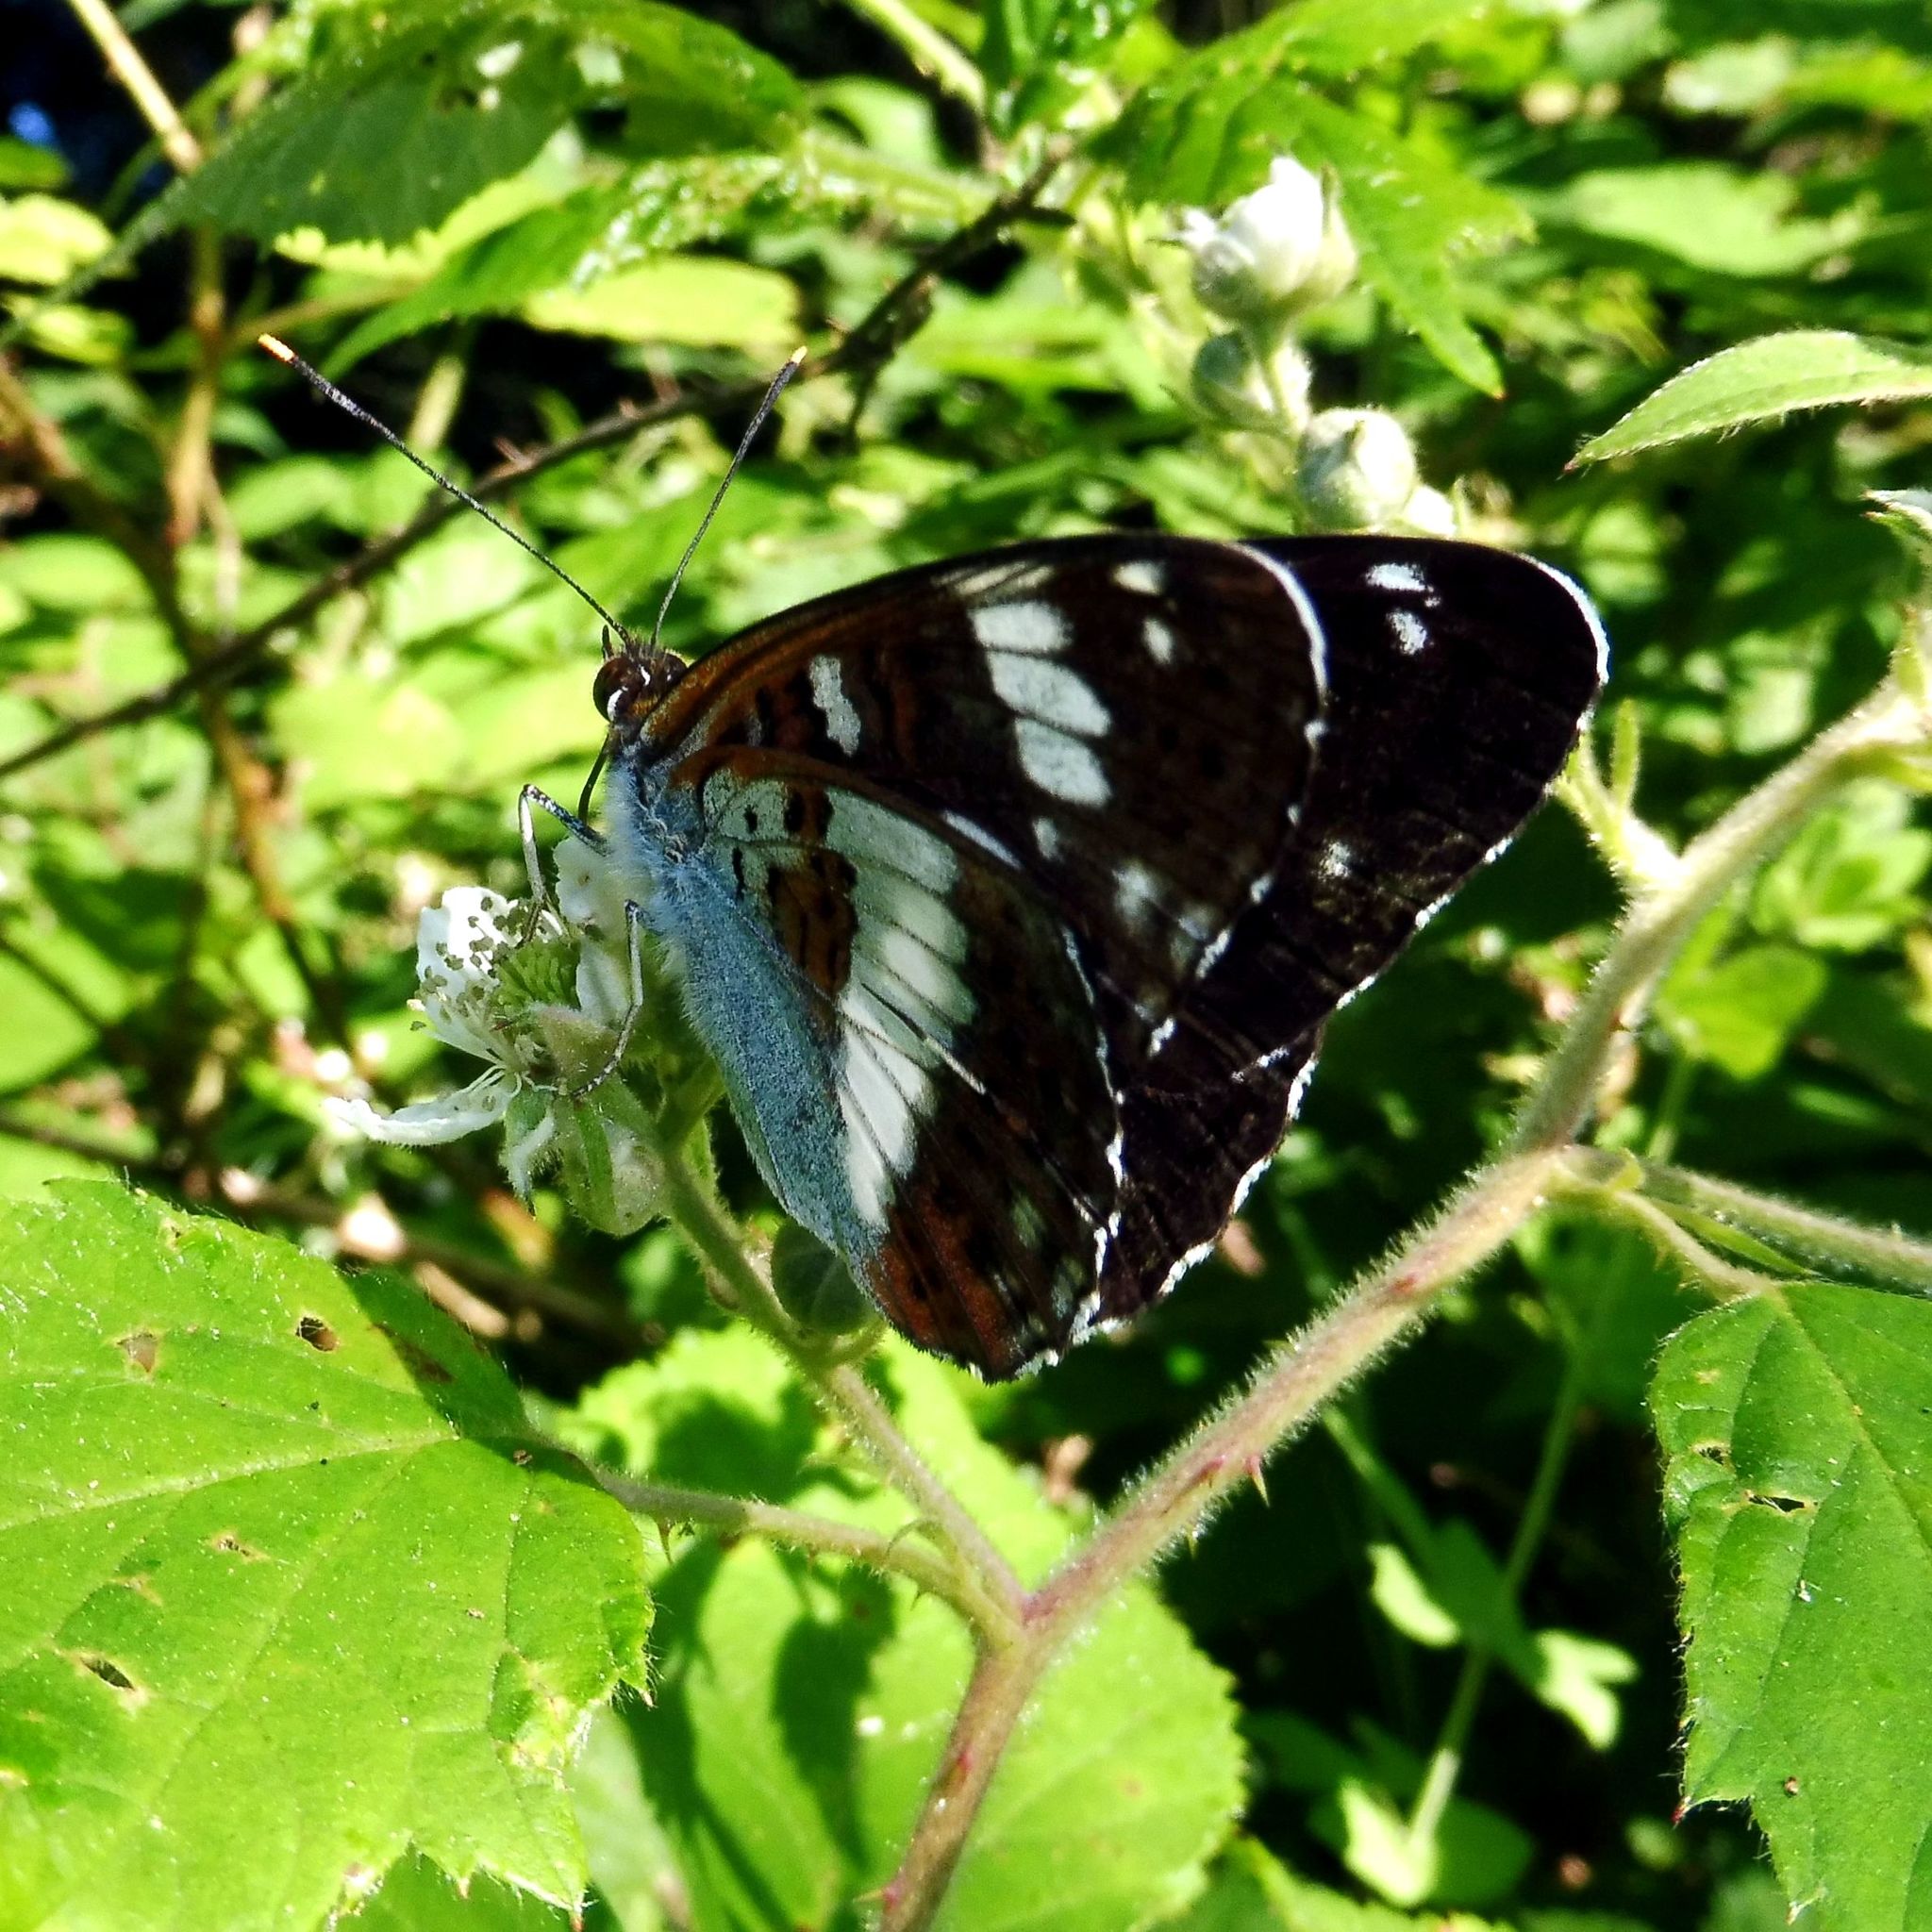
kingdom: Animalia
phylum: Arthropoda
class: Insecta
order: Lepidoptera
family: Nymphalidae
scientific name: Nymphalidae
